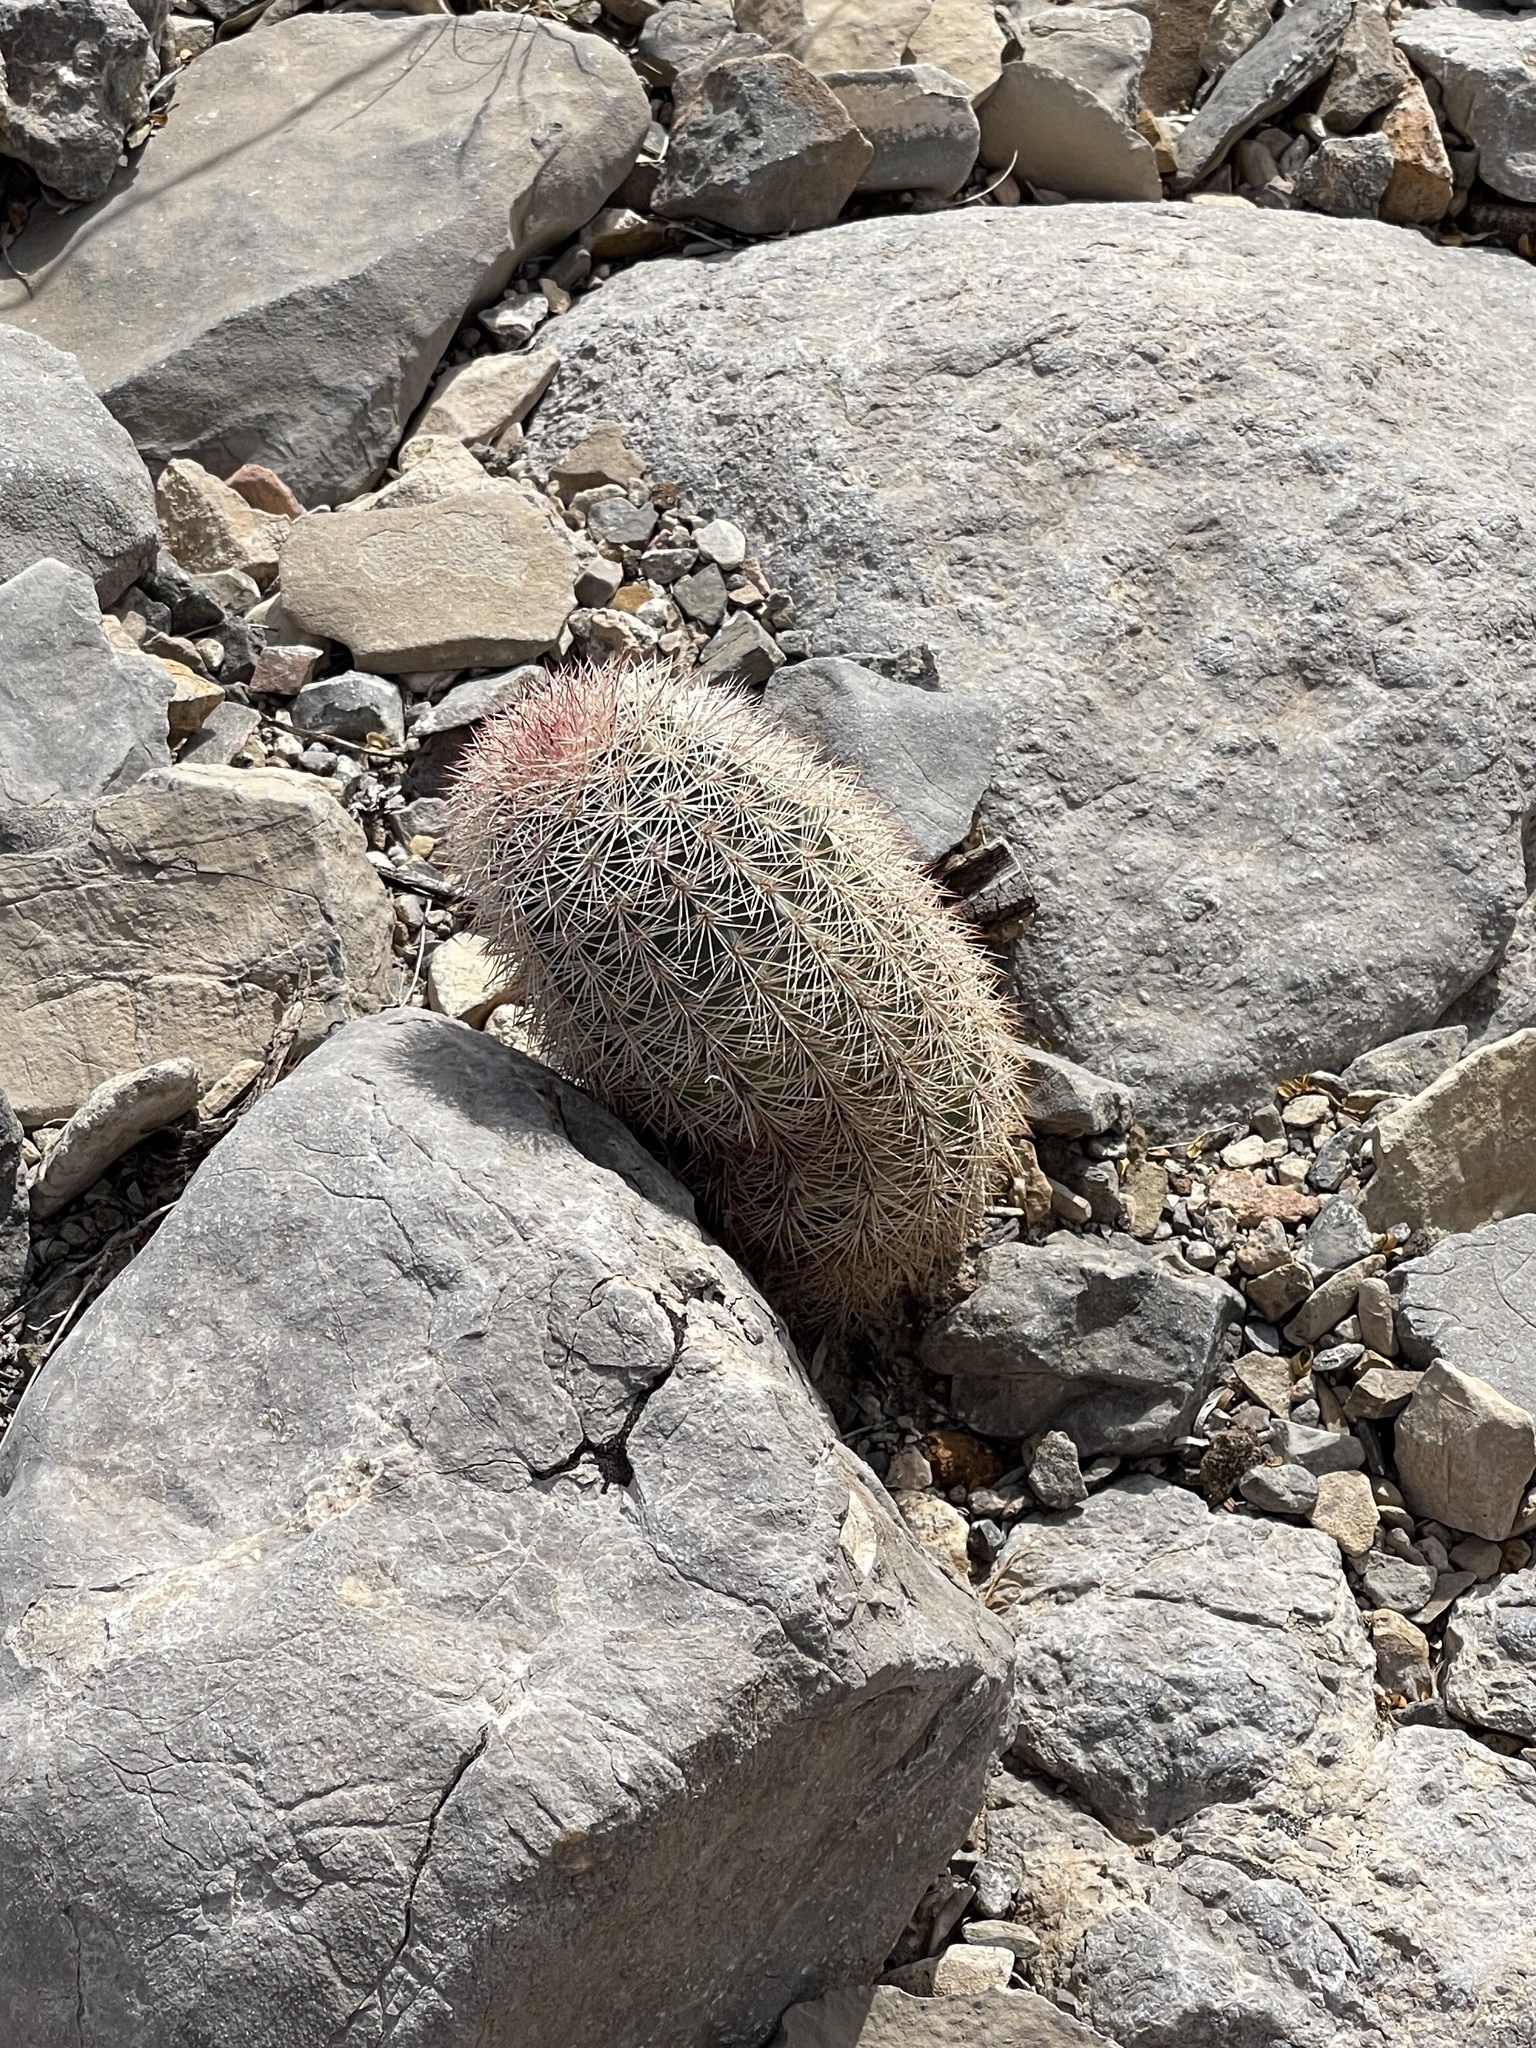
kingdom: Plantae
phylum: Tracheophyta
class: Magnoliopsida
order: Caryophyllales
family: Cactaceae
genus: Echinocereus
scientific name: Echinocereus dasyacanthus
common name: Spiny hedgehog cactus
